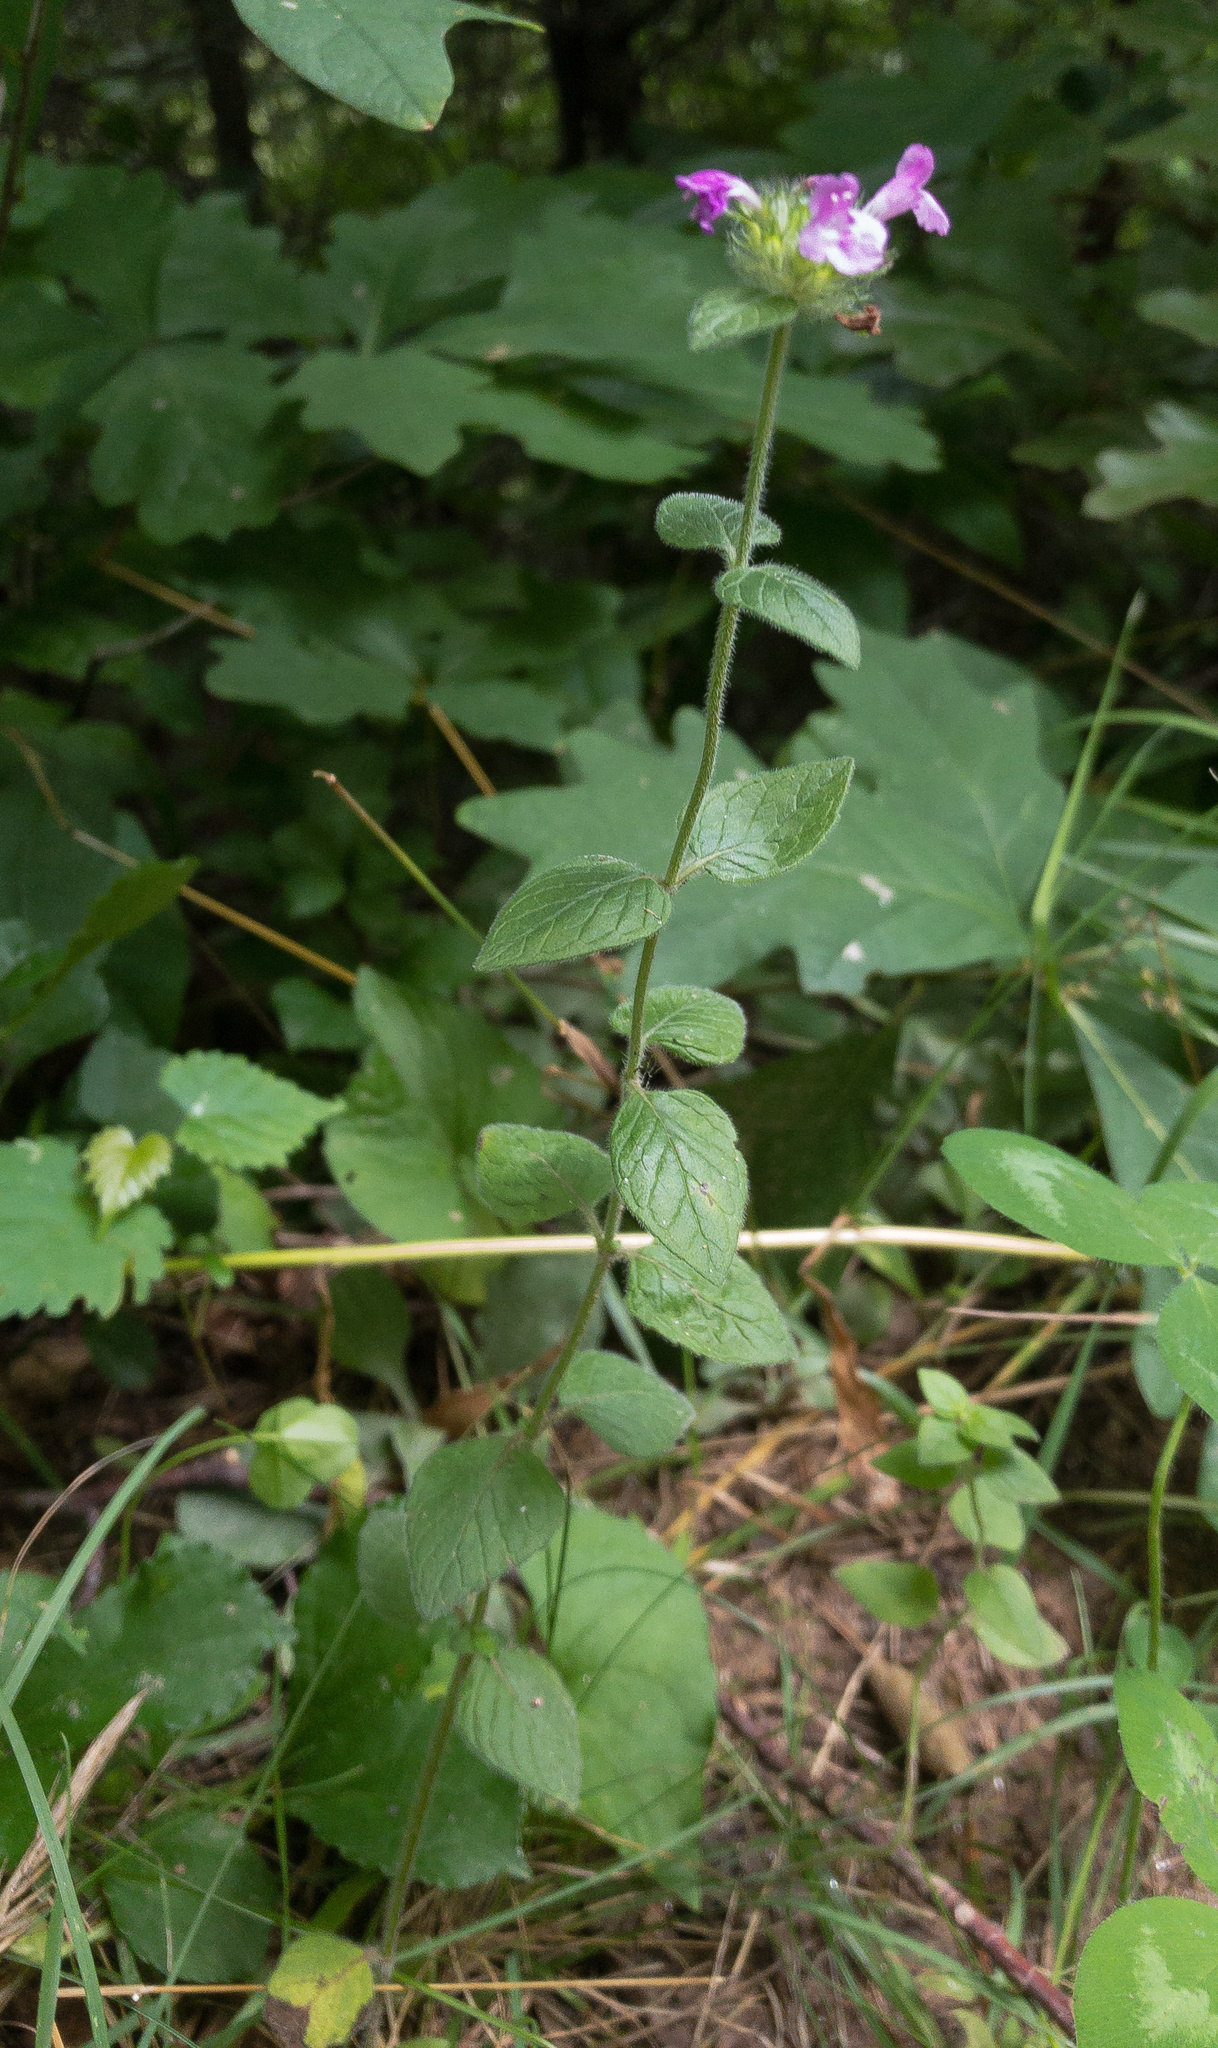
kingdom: Plantae
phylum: Tracheophyta
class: Magnoliopsida
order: Lamiales
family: Lamiaceae
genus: Clinopodium
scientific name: Clinopodium vulgare
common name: Wild basil
